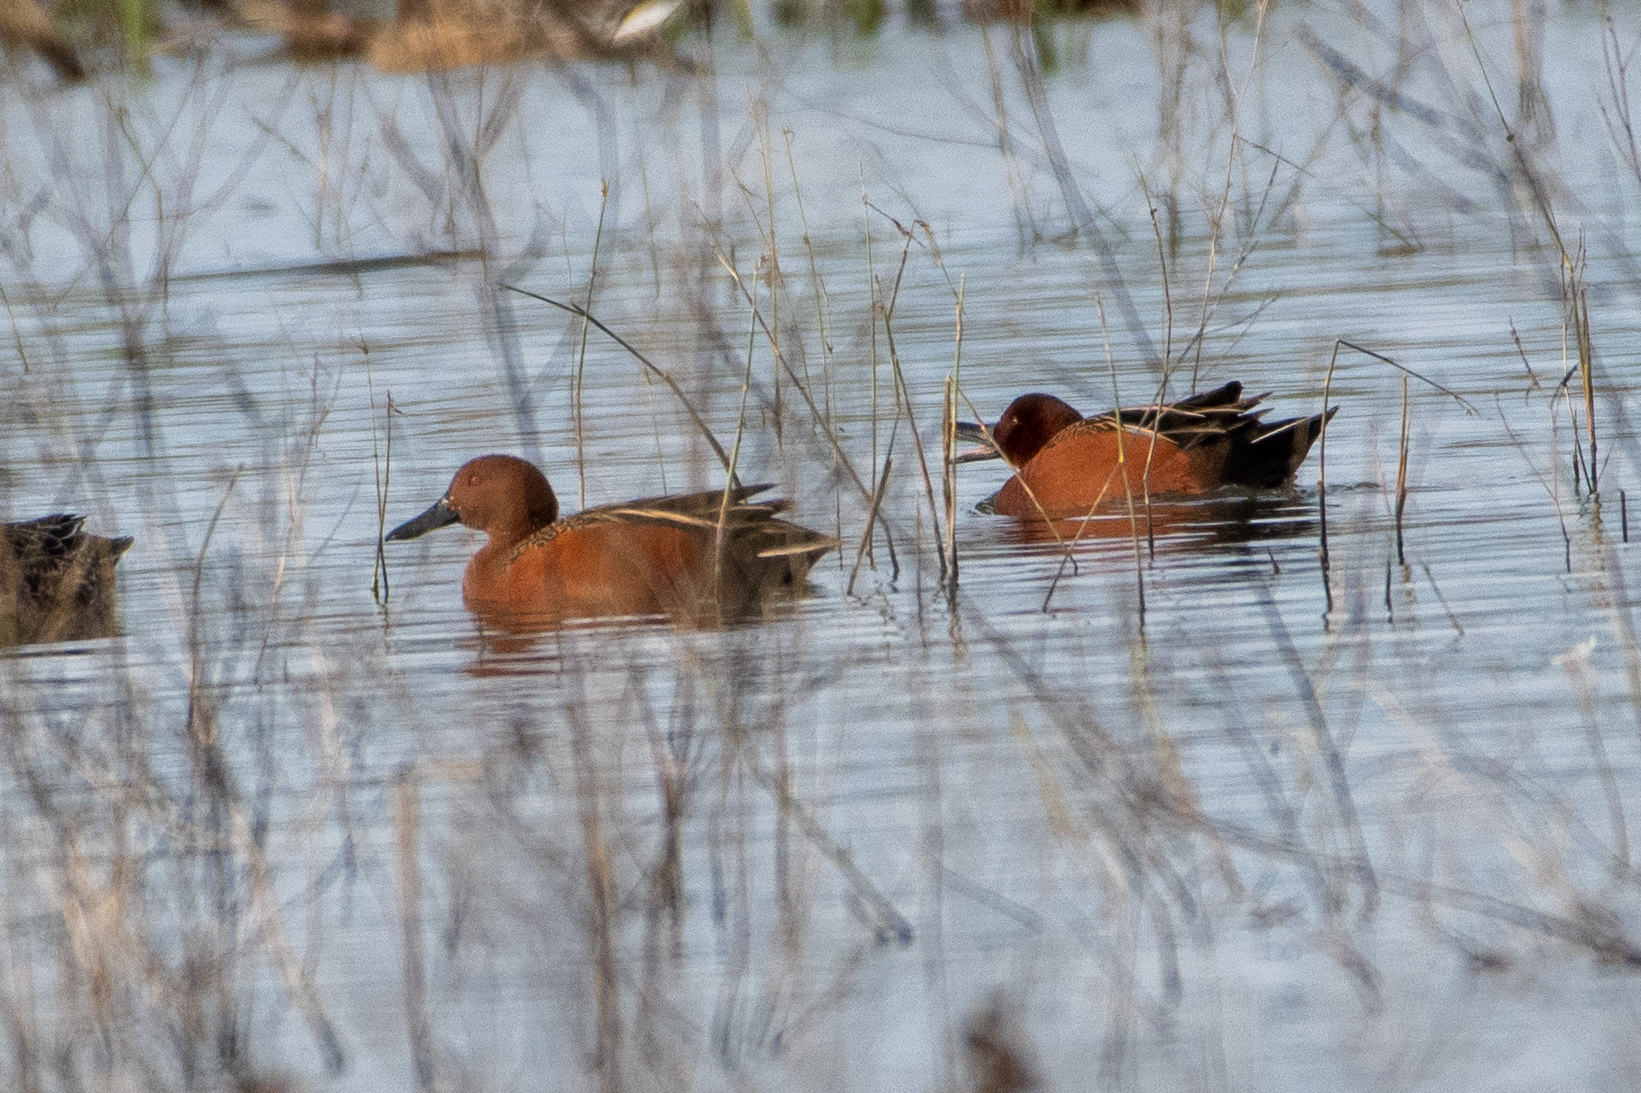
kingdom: Animalia
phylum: Chordata
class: Aves
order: Anseriformes
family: Anatidae
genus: Spatula
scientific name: Spatula cyanoptera
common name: Cinnamon teal
